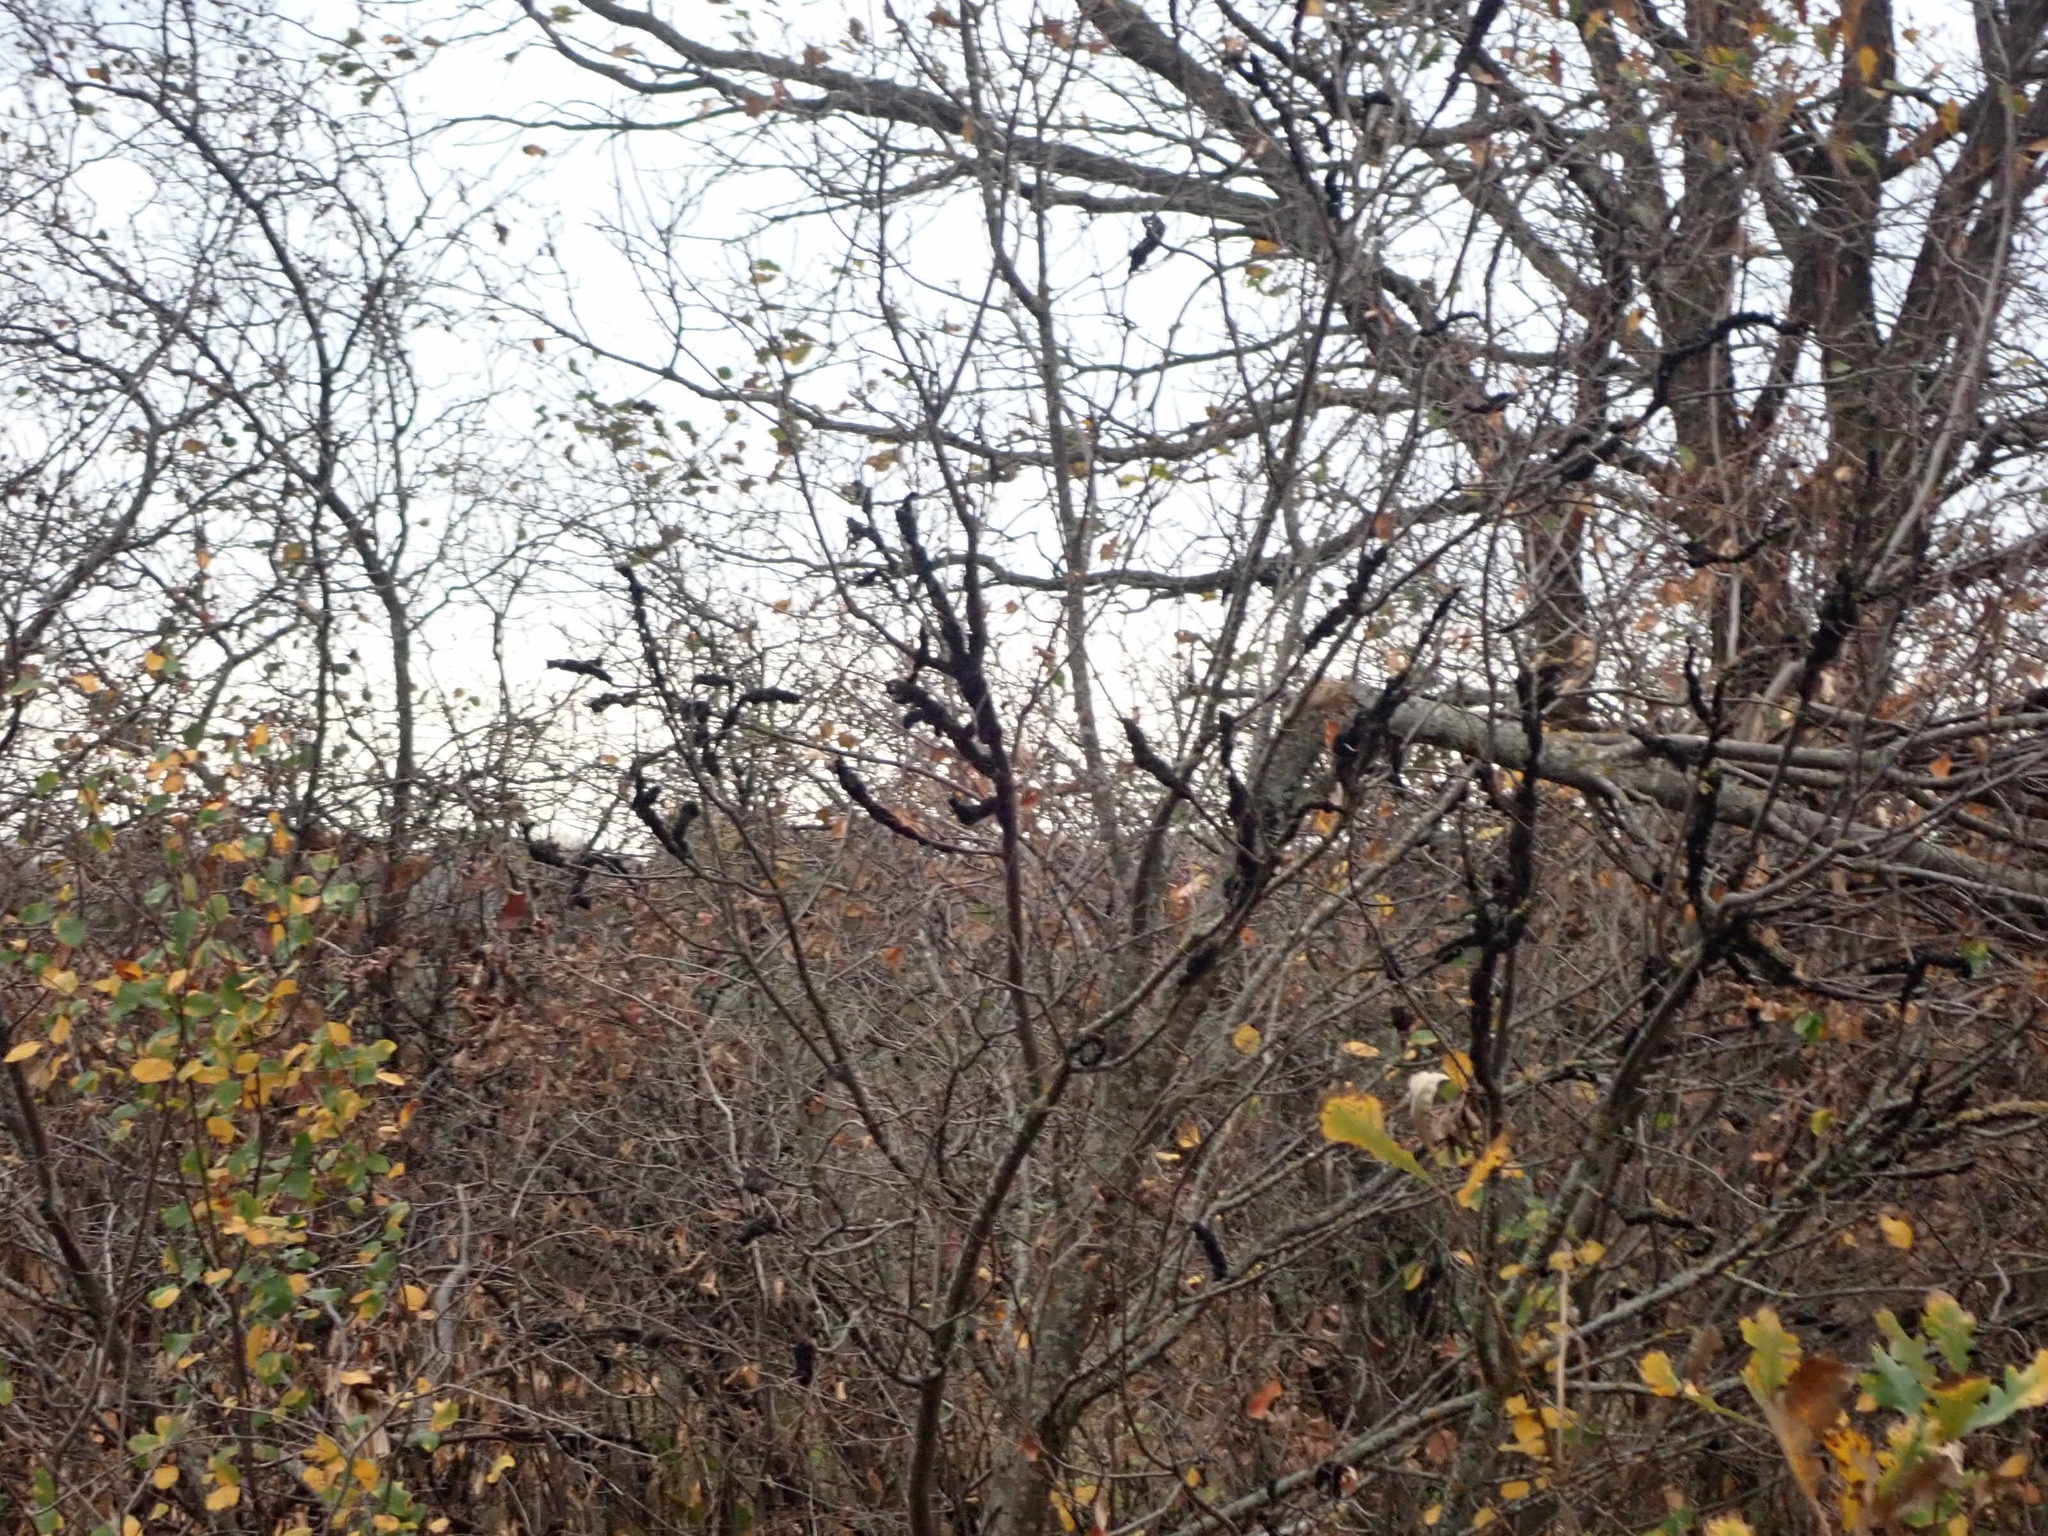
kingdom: Fungi
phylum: Ascomycota
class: Dothideomycetes
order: Venturiales
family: Venturiaceae
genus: Apiosporina
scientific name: Apiosporina morbosa
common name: Black knot
